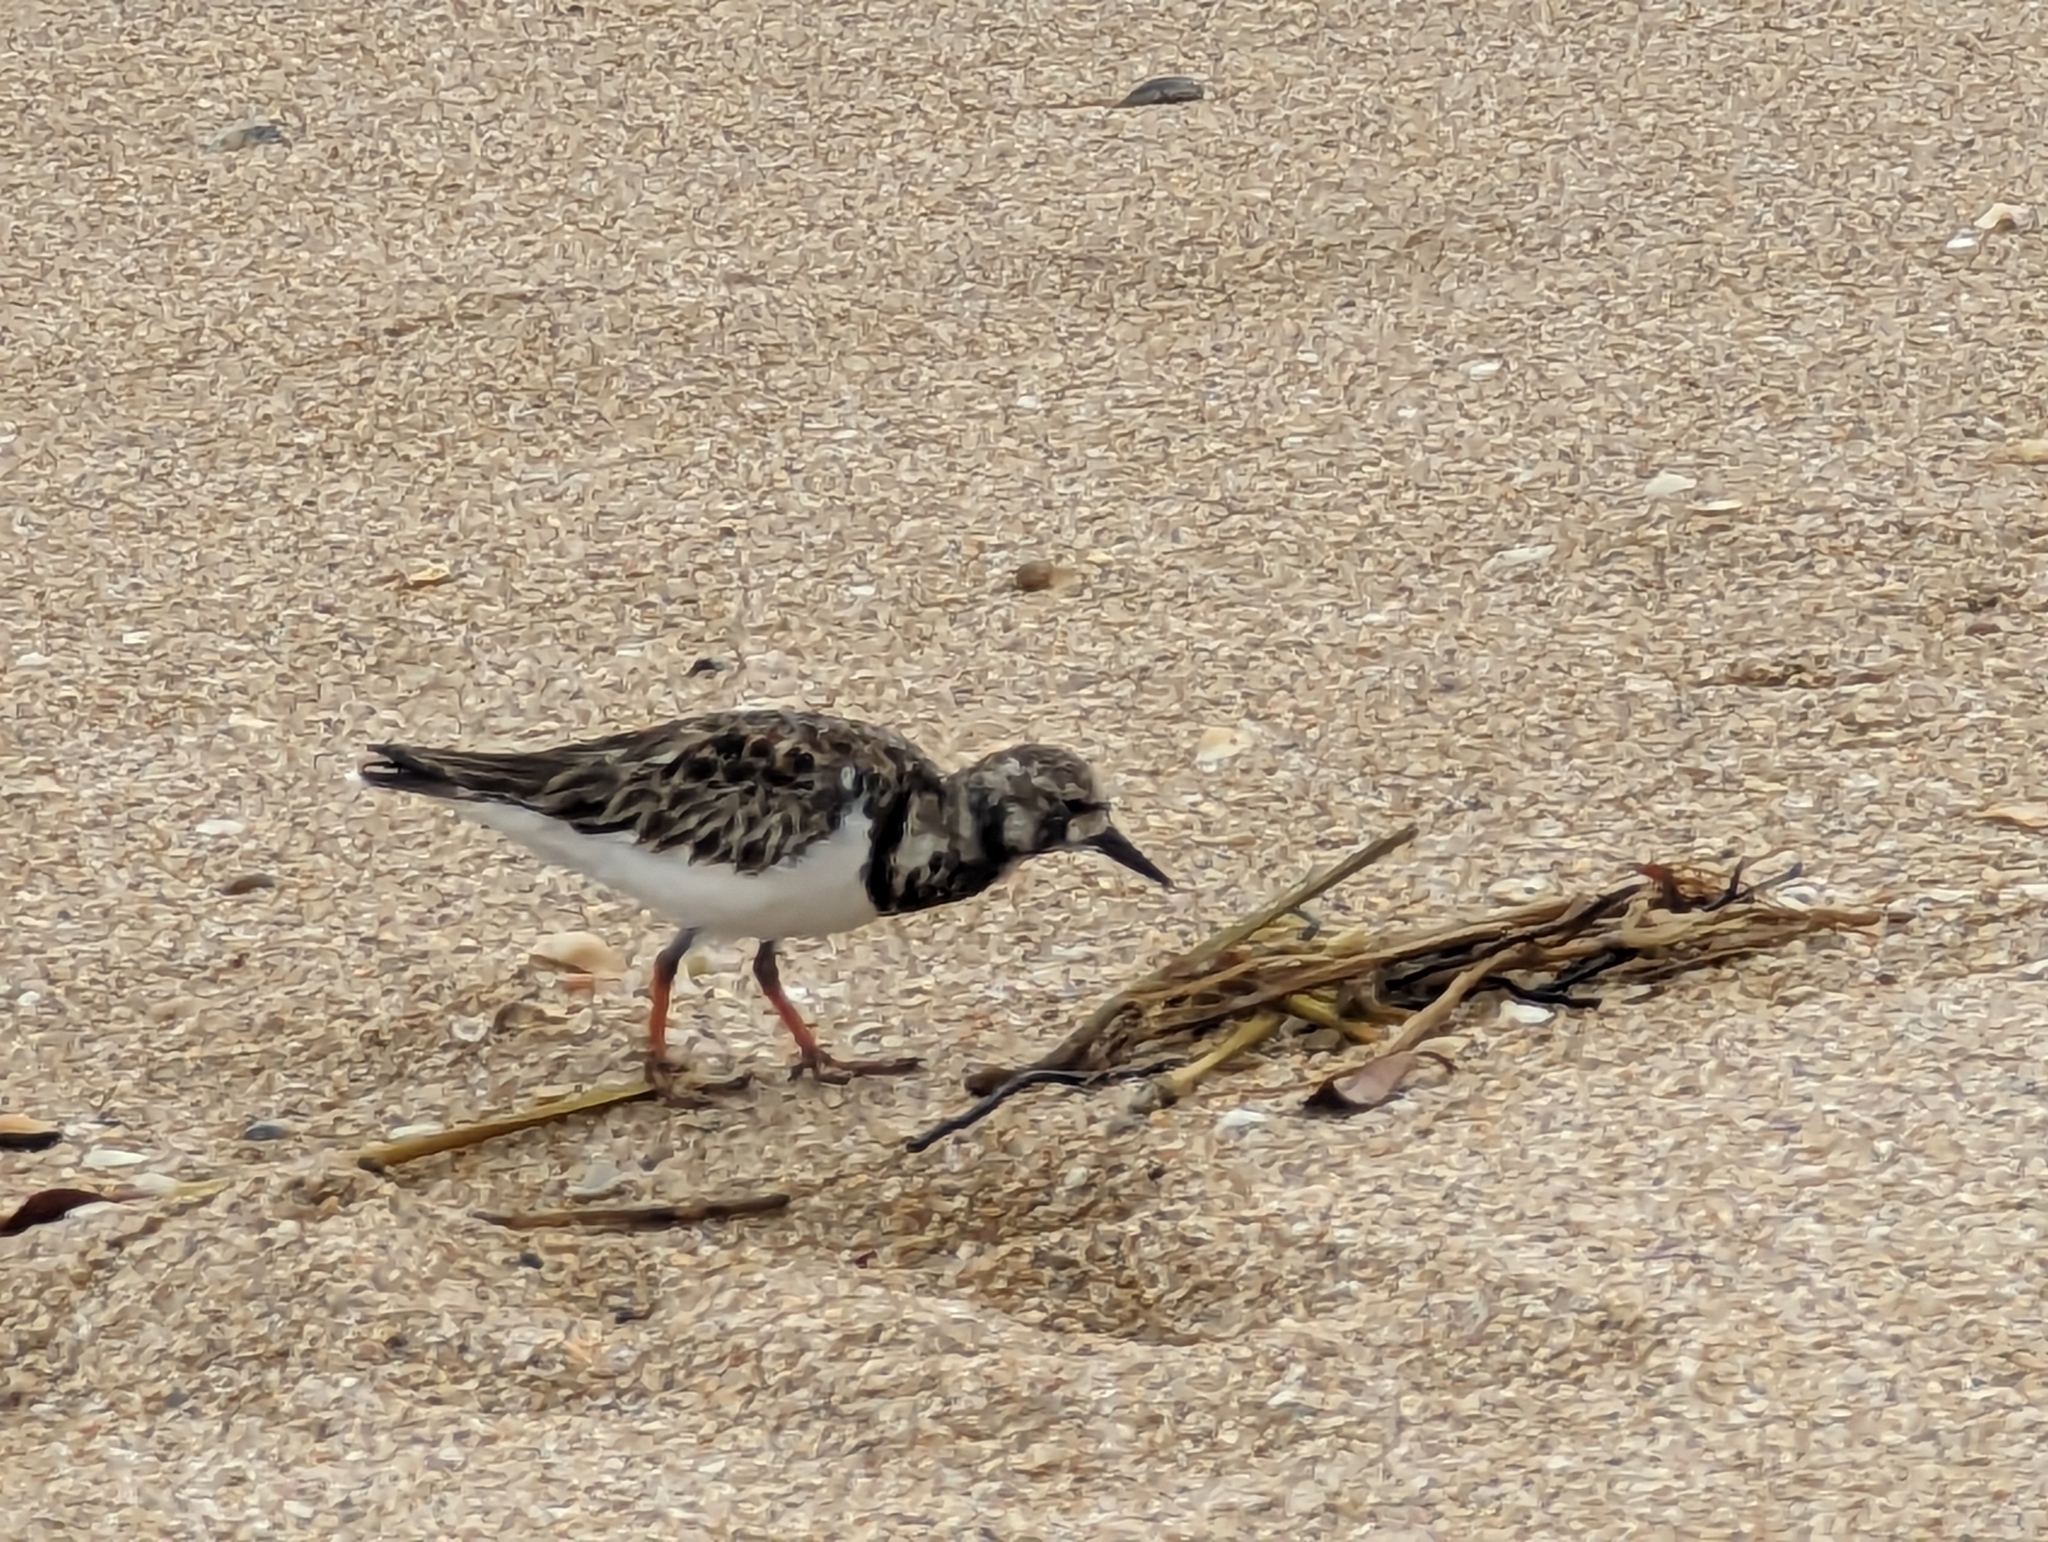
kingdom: Animalia
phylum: Chordata
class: Aves
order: Charadriiformes
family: Scolopacidae
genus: Arenaria
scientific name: Arenaria interpres
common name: Ruddy turnstone
